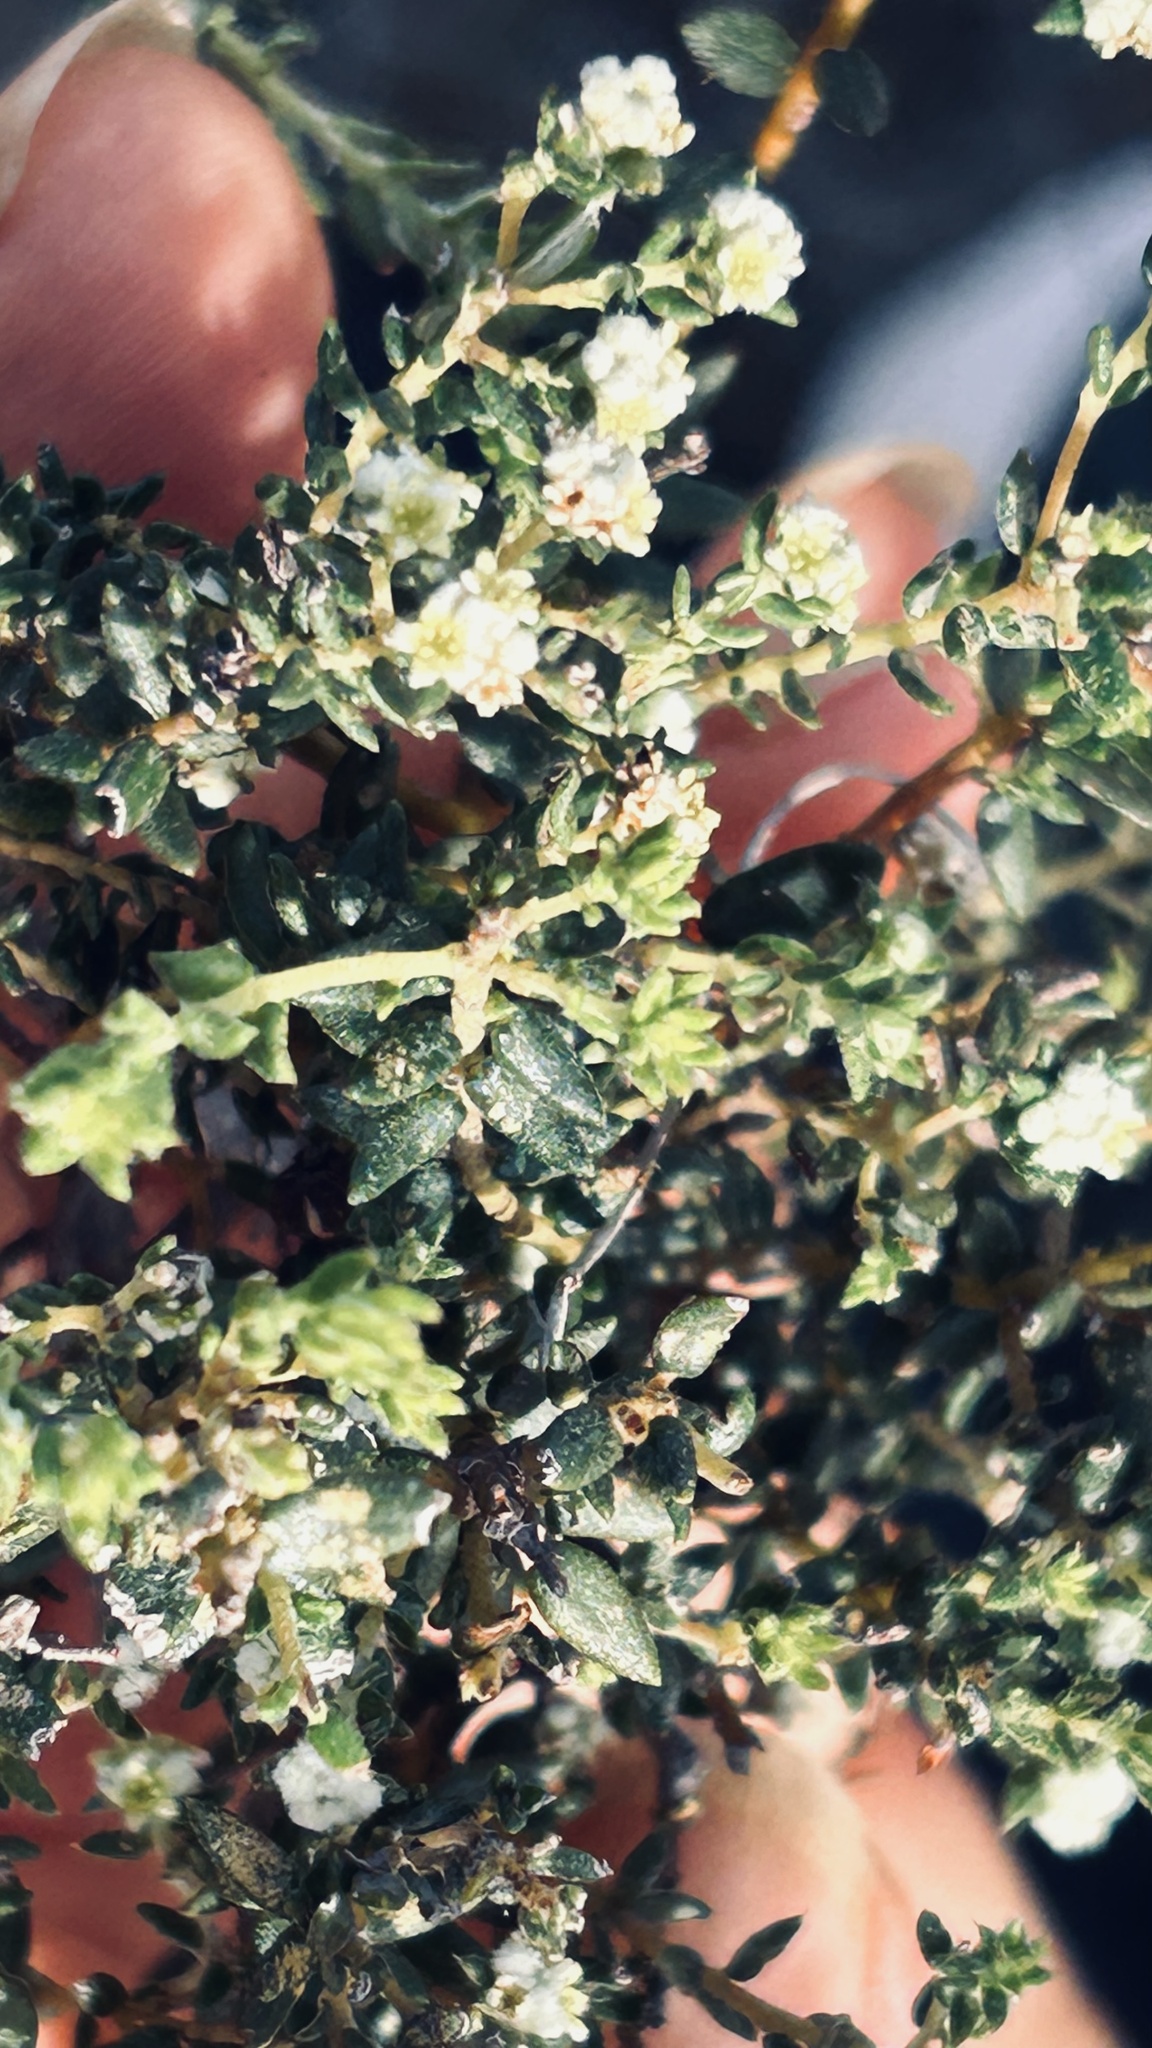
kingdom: Plantae
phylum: Tracheophyta
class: Magnoliopsida
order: Rosales
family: Rhamnaceae
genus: Phylica
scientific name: Phylica parviflora
